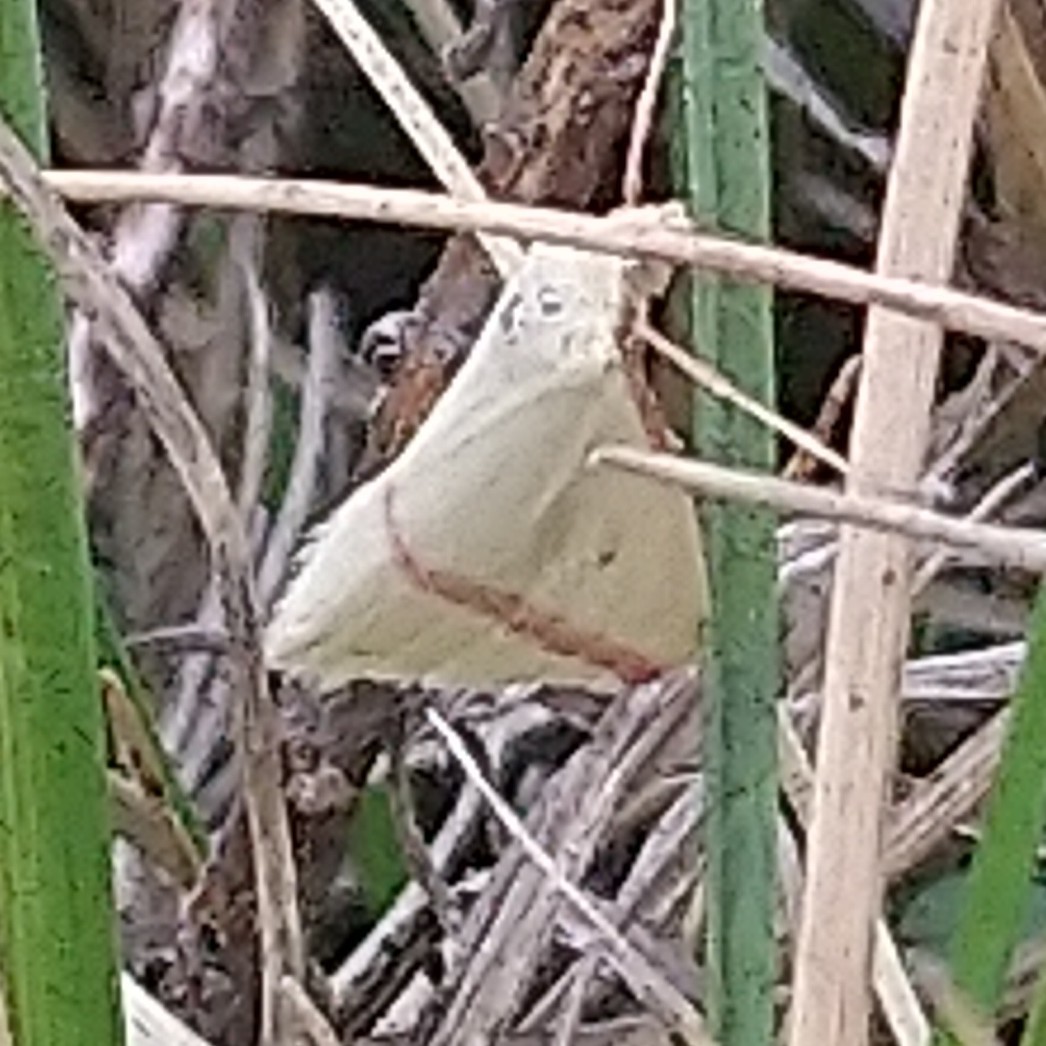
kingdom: Animalia
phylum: Arthropoda
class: Insecta
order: Lepidoptera
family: Geometridae
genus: Rhodometra
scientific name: Rhodometra sacraria
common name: Vestal
